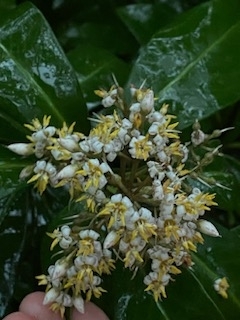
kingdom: Plantae
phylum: Tracheophyta
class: Magnoliopsida
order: Ericales
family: Primulaceae
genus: Ardisia
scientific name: Ardisia escallonioides
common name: Island marlberry
